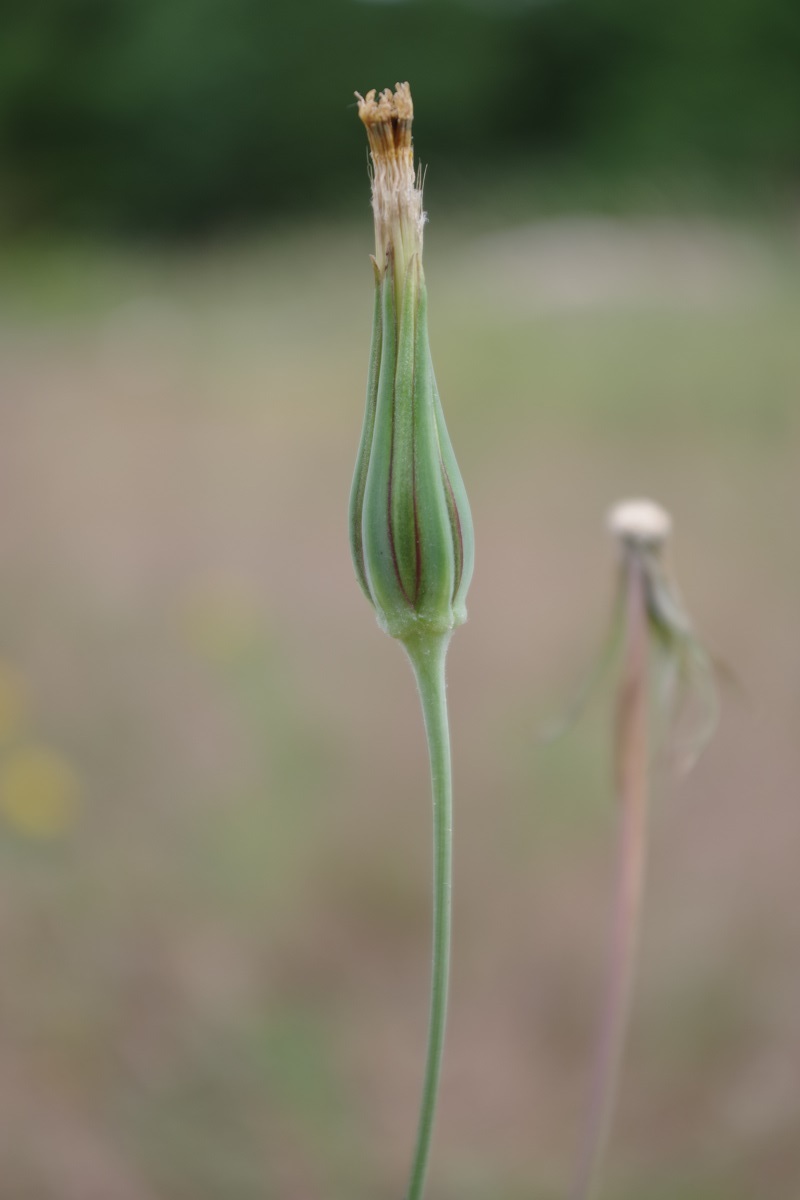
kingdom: Plantae
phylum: Tracheophyta
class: Magnoliopsida
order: Asterales
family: Asteraceae
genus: Tragopogon
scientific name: Tragopogon pratensis
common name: Goat's-beard
